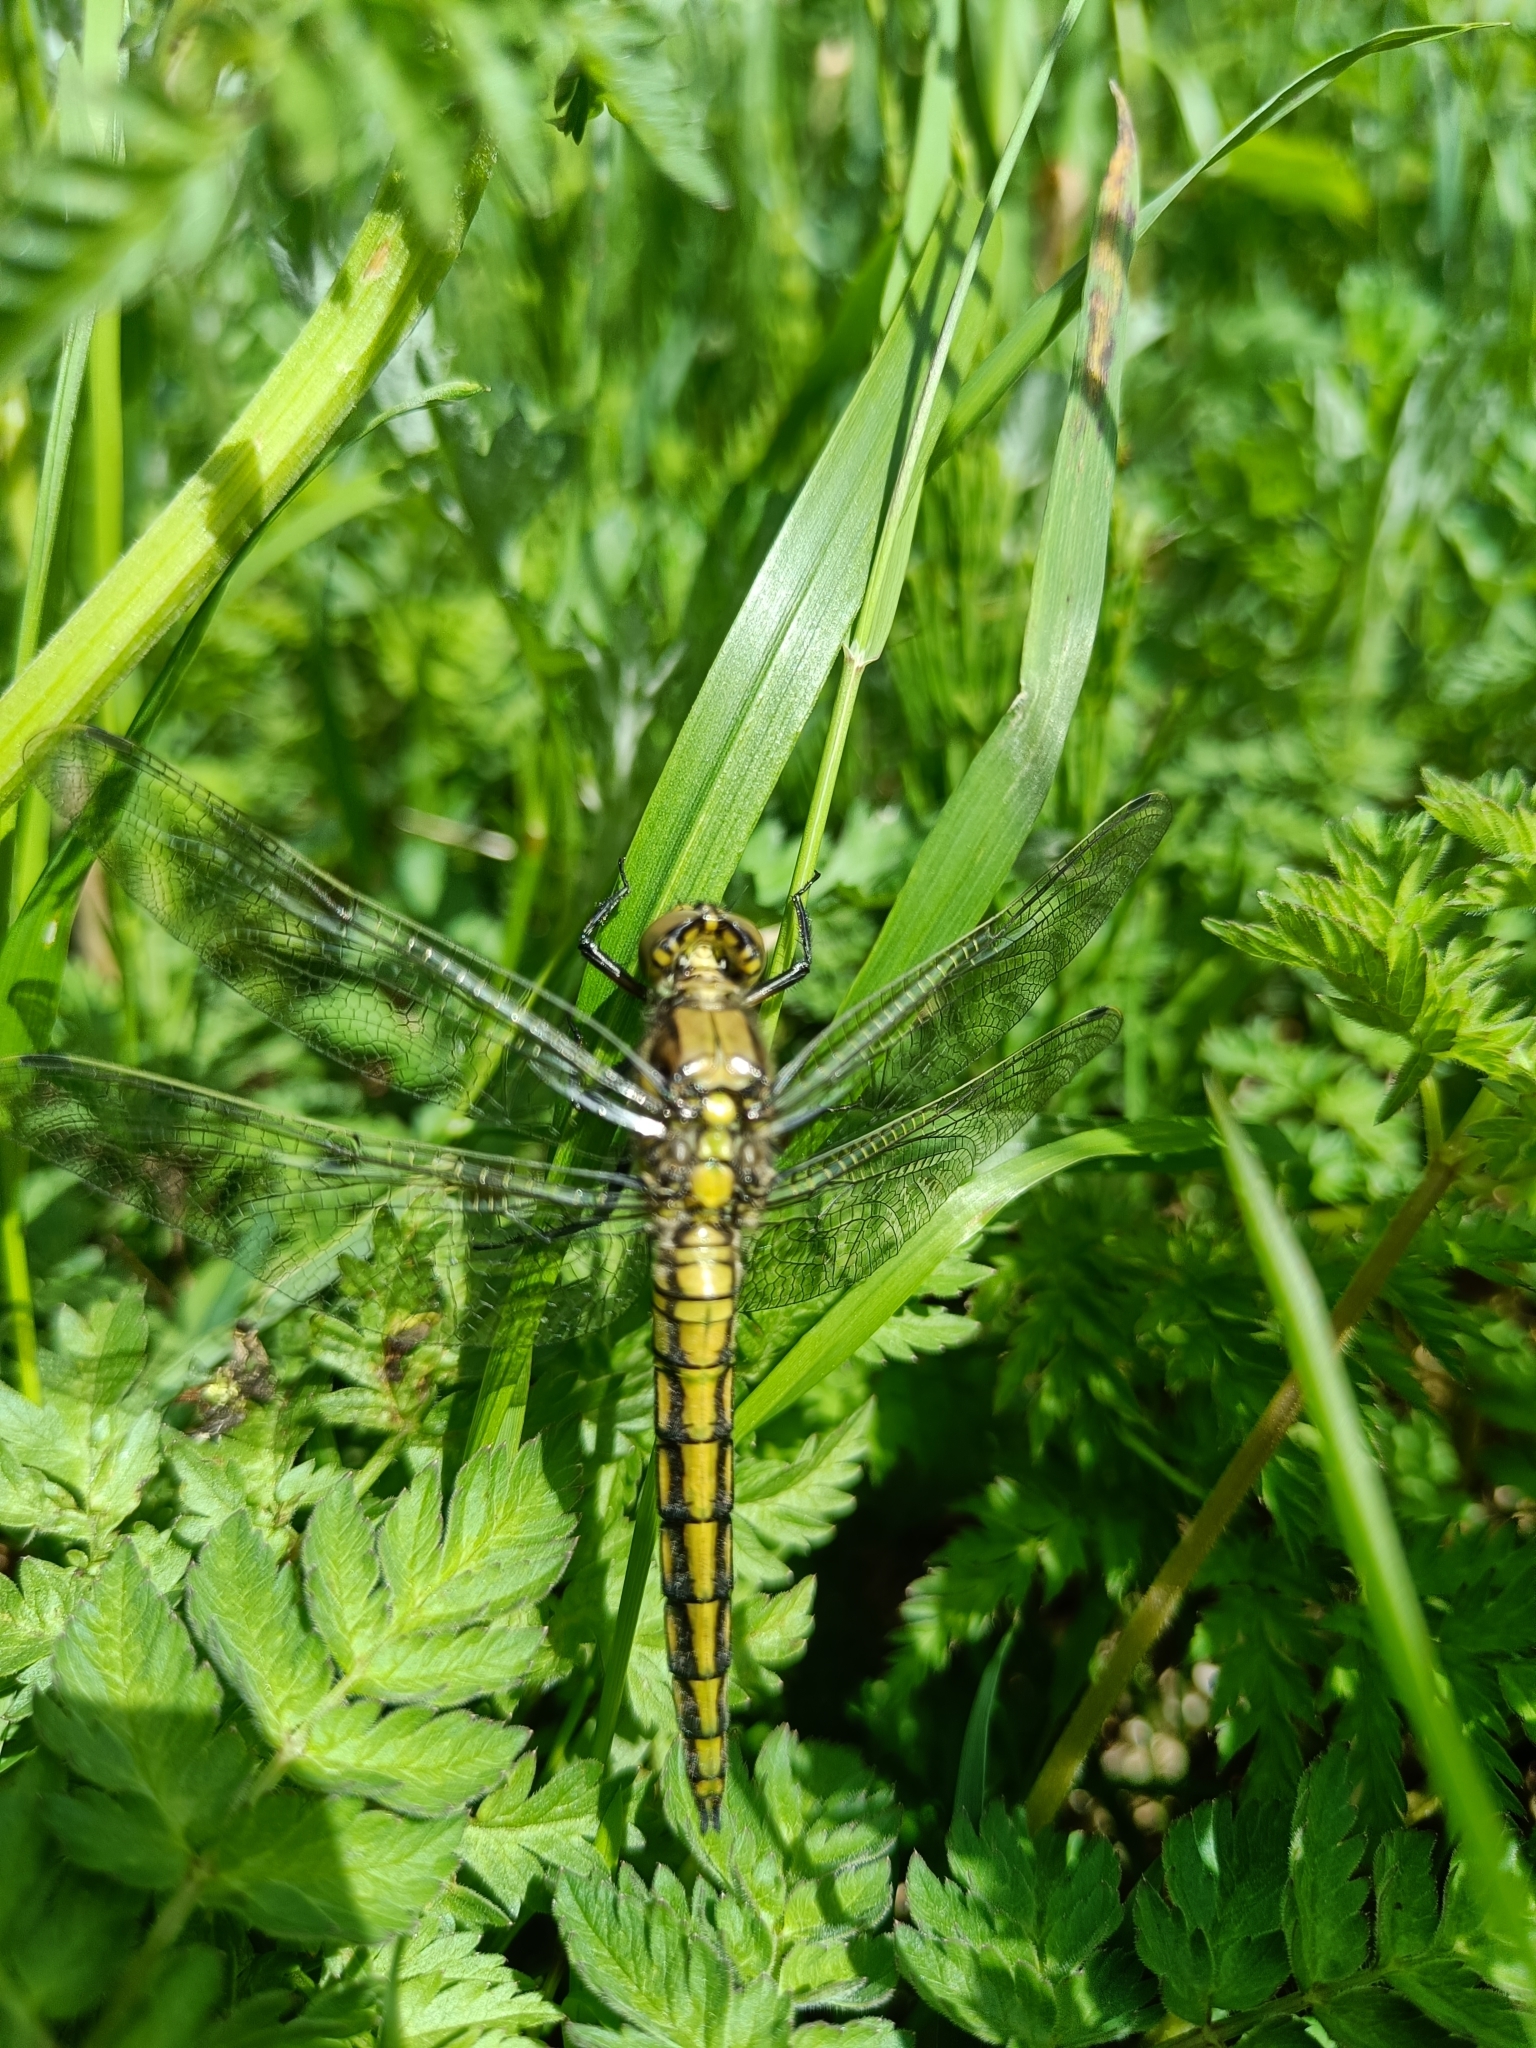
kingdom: Animalia
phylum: Arthropoda
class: Insecta
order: Odonata
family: Libellulidae
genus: Orthetrum
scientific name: Orthetrum cancellatum
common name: Black-tailed skimmer
